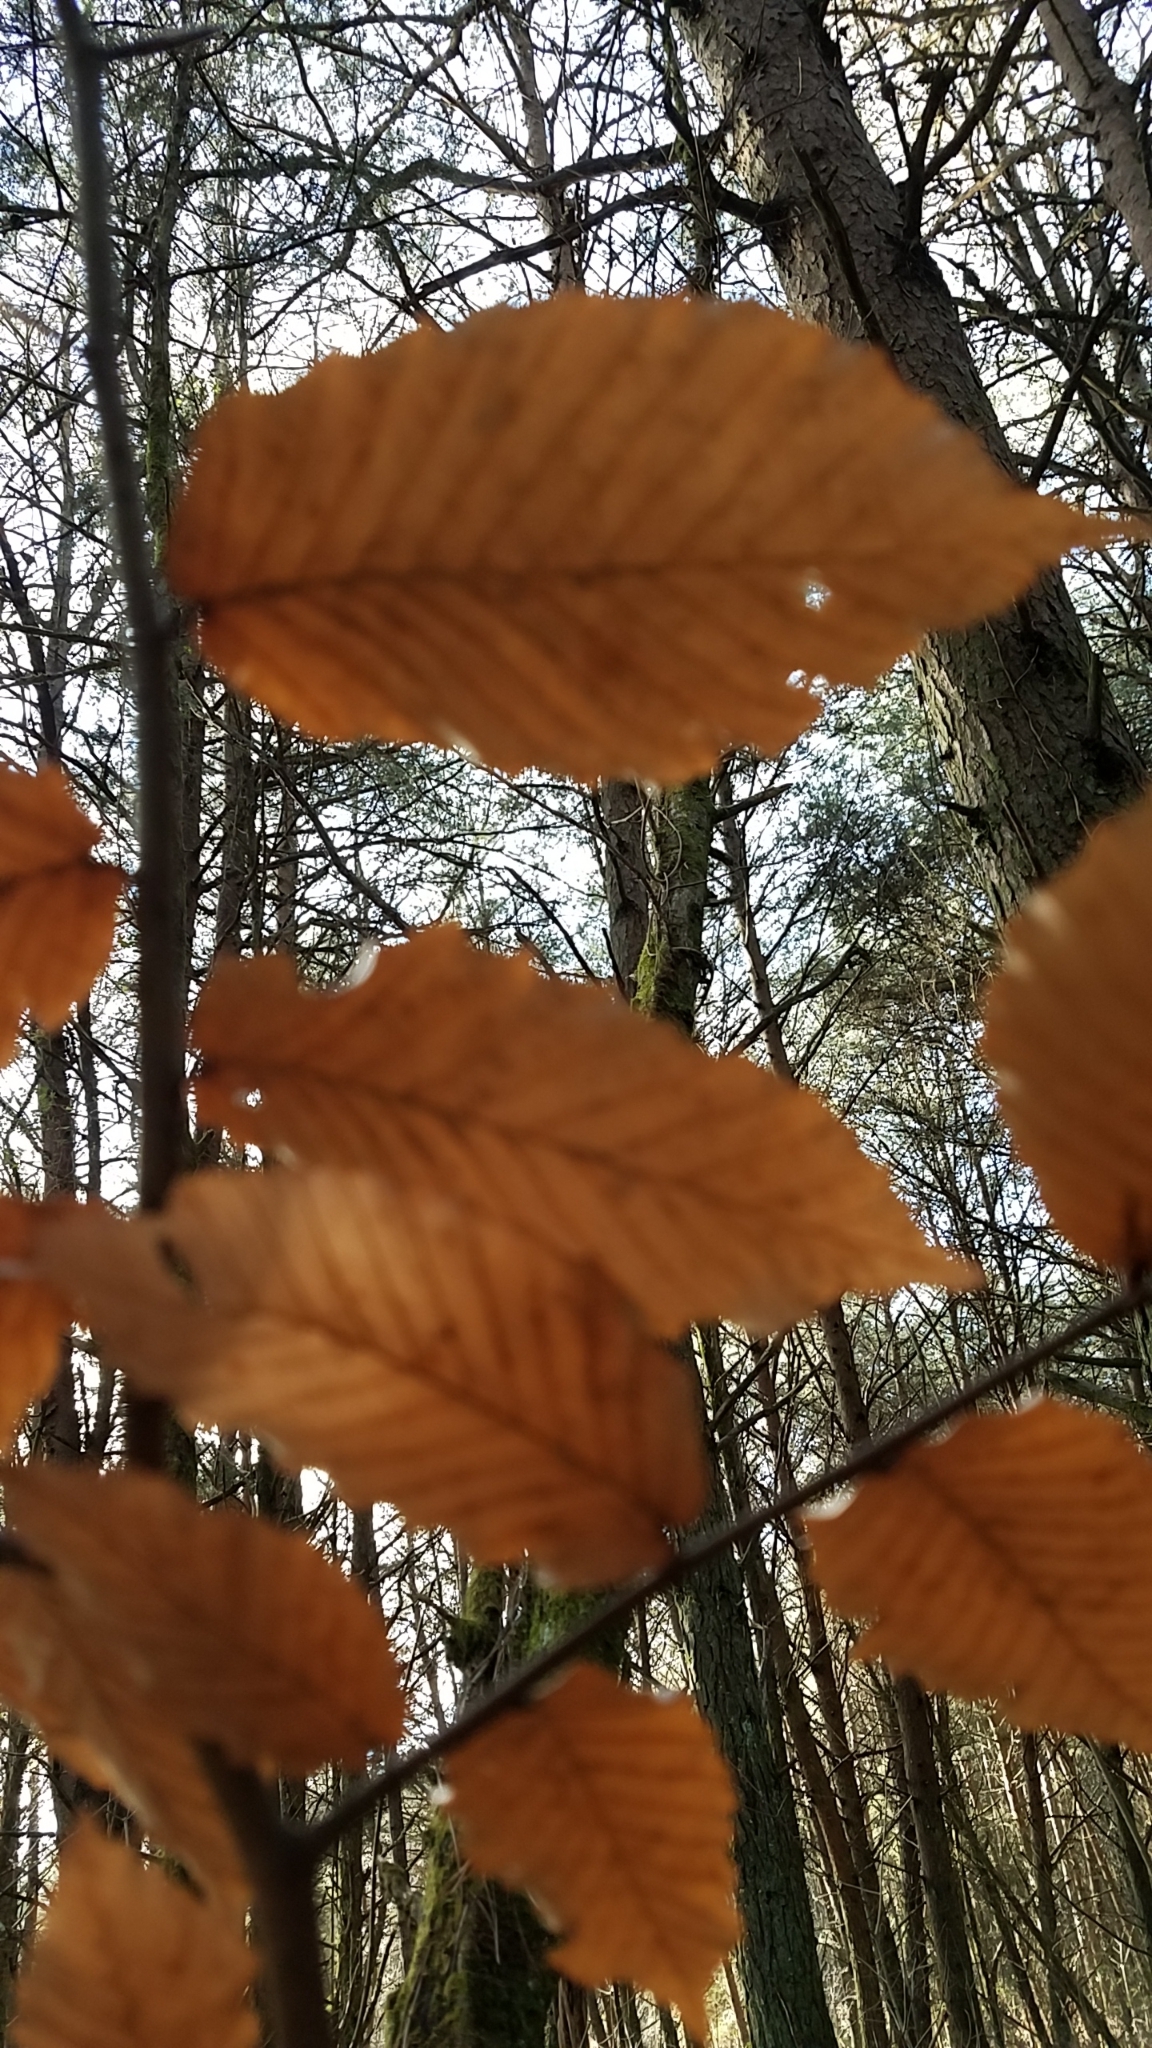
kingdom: Plantae
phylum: Tracheophyta
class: Magnoliopsida
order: Fagales
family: Fagaceae
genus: Fagus
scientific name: Fagus grandifolia
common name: American beech
